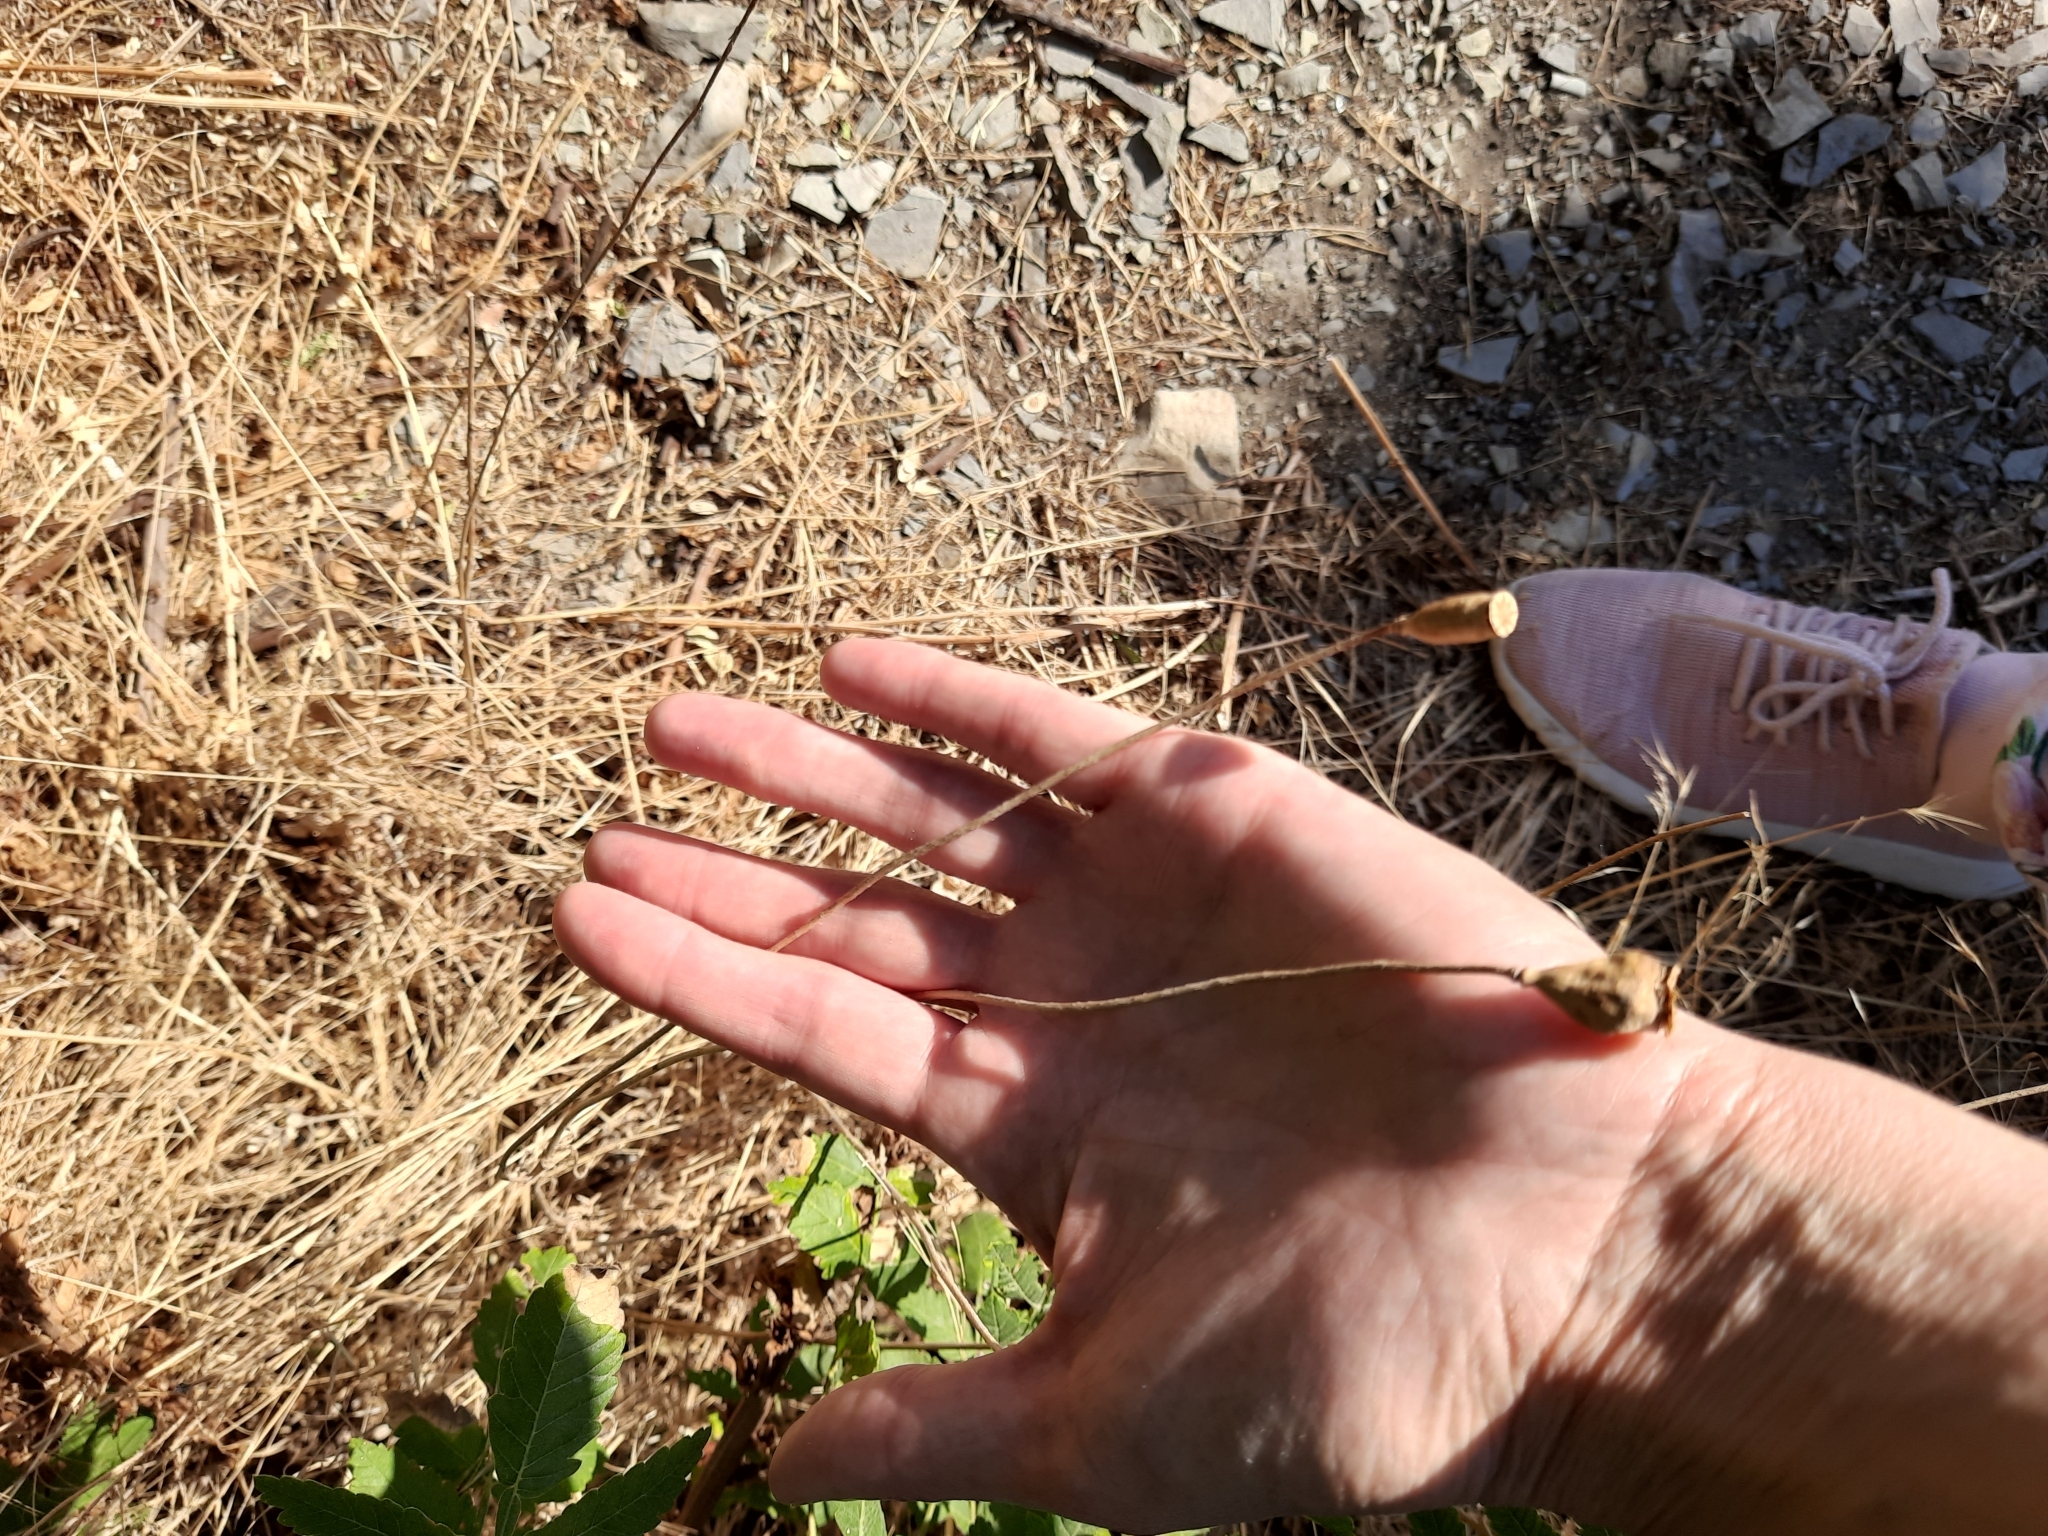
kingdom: Plantae
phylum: Tracheophyta
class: Magnoliopsida
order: Ranunculales
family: Papaveraceae
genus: Papaver
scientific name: Papaver dubium
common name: Long-headed poppy
